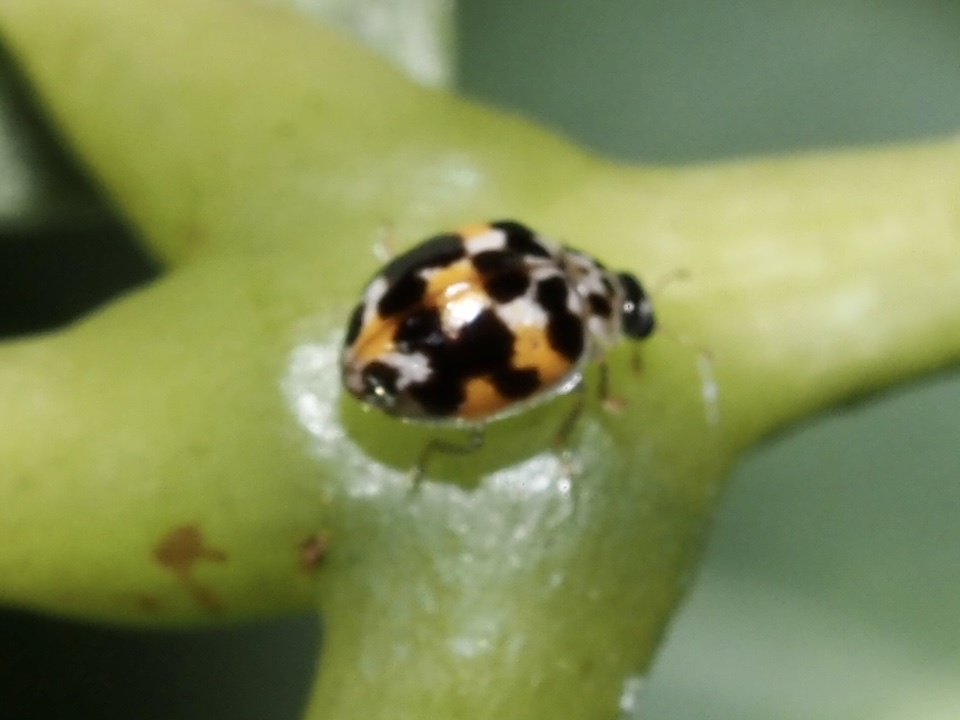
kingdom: Animalia
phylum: Arthropoda
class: Insecta
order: Coleoptera
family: Coccinellidae
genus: Psyllobora
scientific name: Psyllobora vigintimaculata
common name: Ladybird beetle
